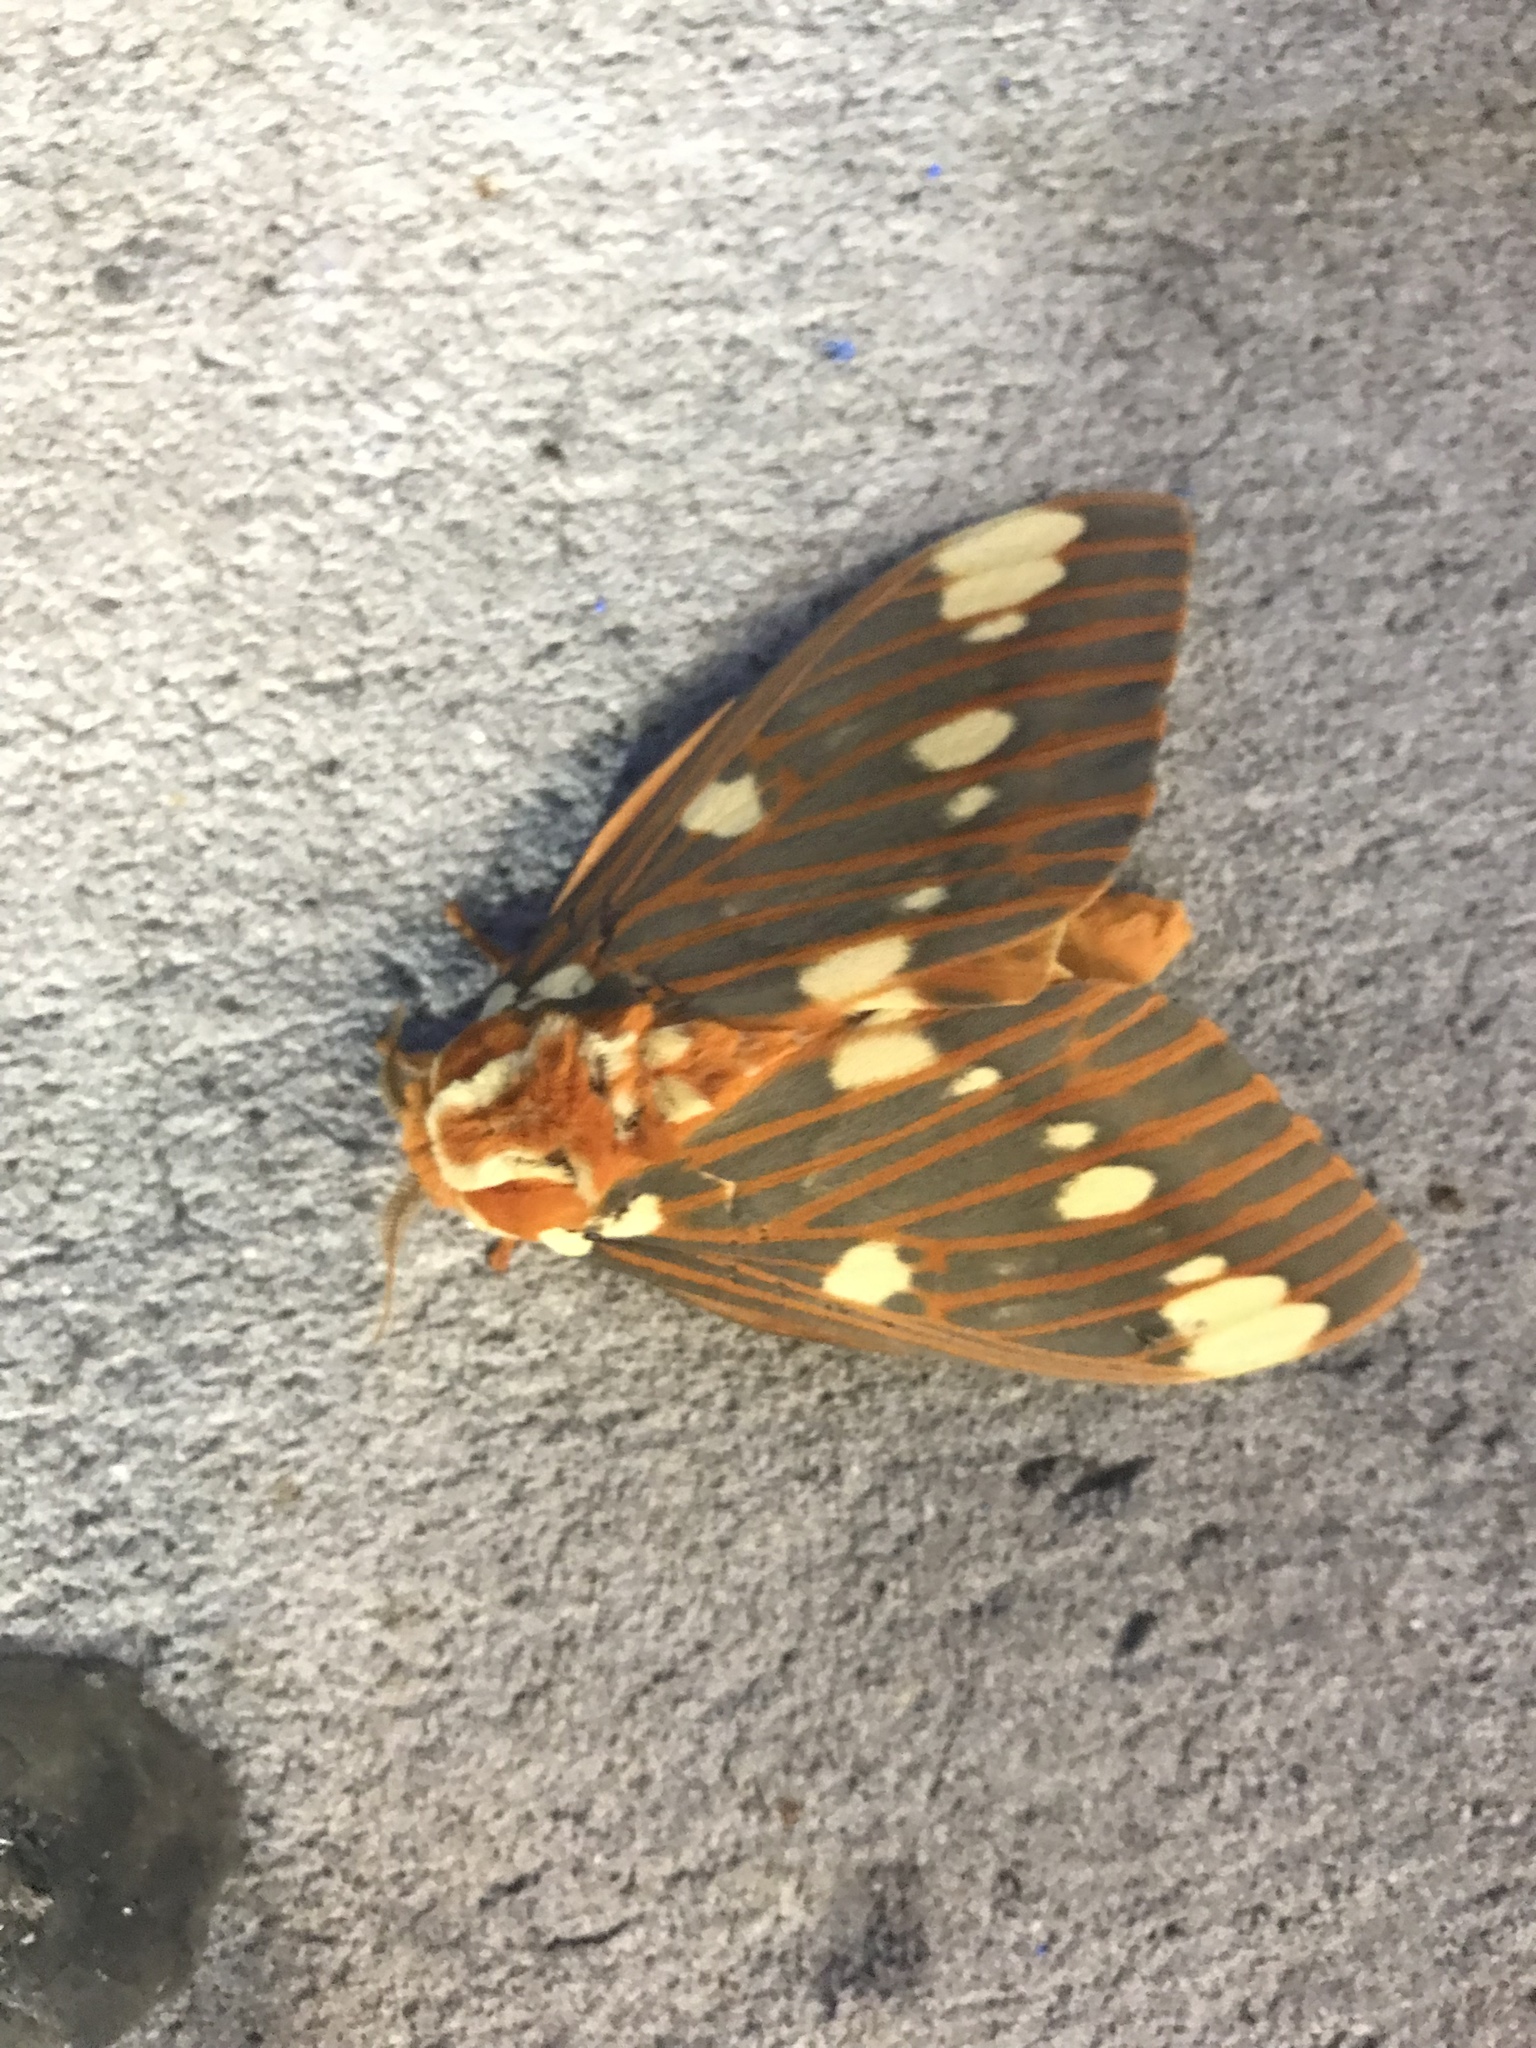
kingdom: Animalia
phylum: Arthropoda
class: Insecta
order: Lepidoptera
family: Saturniidae
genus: Citheronia
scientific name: Citheronia regalis
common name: Hickory horned devil
